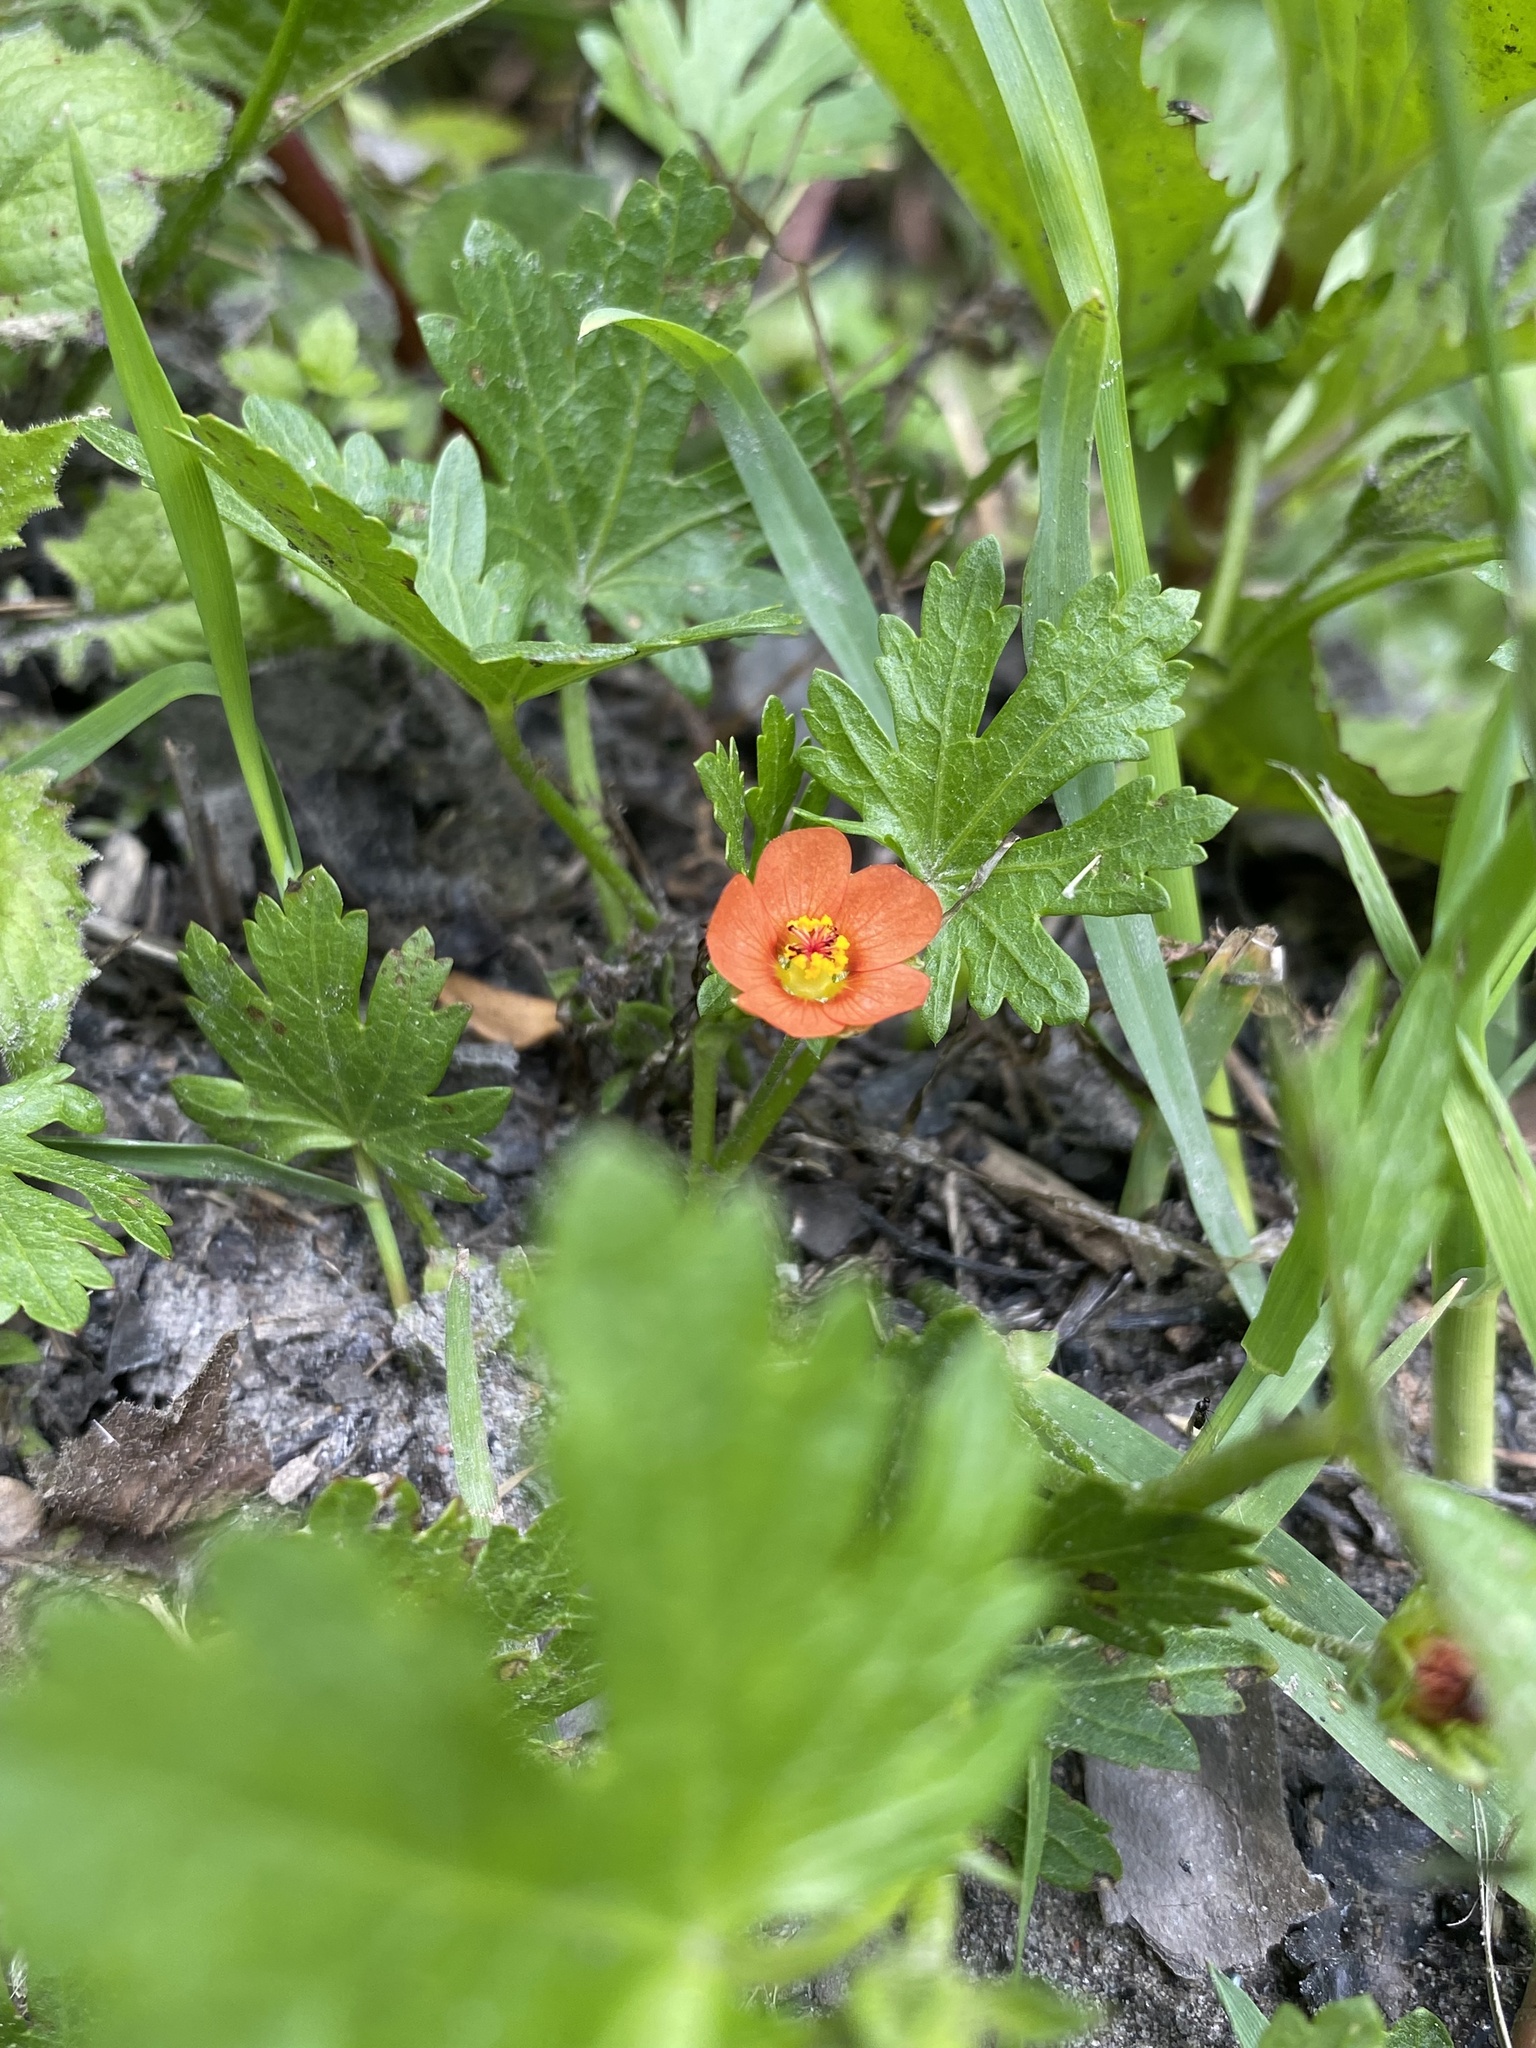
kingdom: Plantae
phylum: Tracheophyta
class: Magnoliopsida
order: Malvales
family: Malvaceae
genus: Modiola
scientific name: Modiola caroliniana
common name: Carolina bristlemallow
